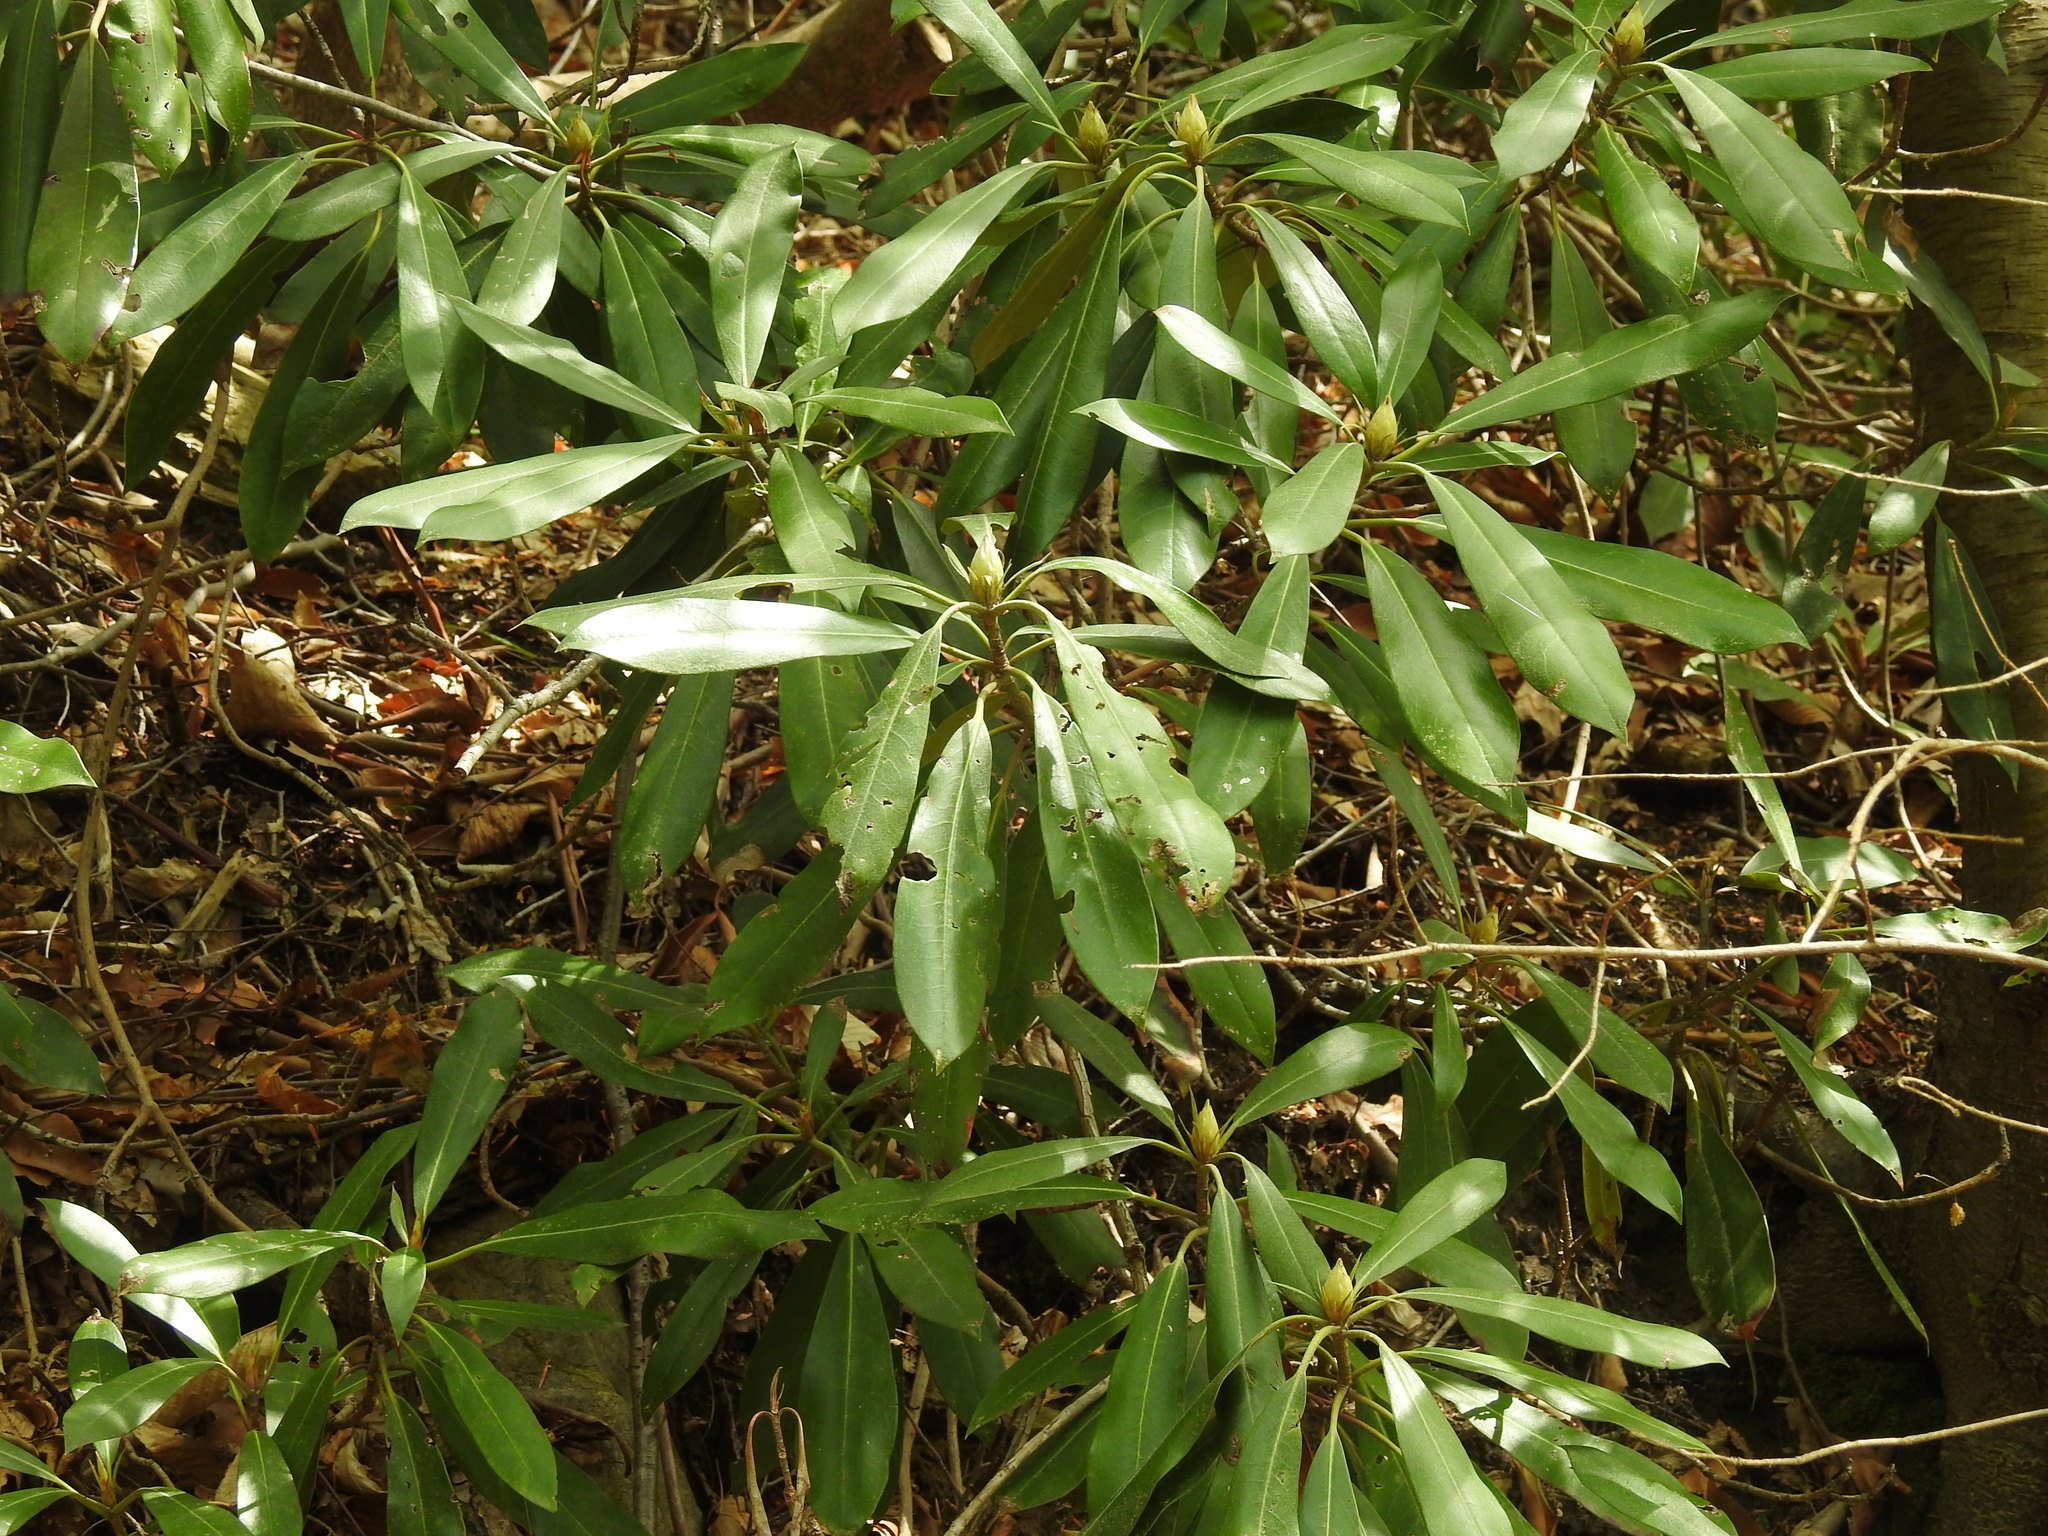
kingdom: Plantae
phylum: Tracheophyta
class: Magnoliopsida
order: Ericales
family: Ericaceae
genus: Rhododendron
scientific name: Rhododendron maximum
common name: Great rhododendron
